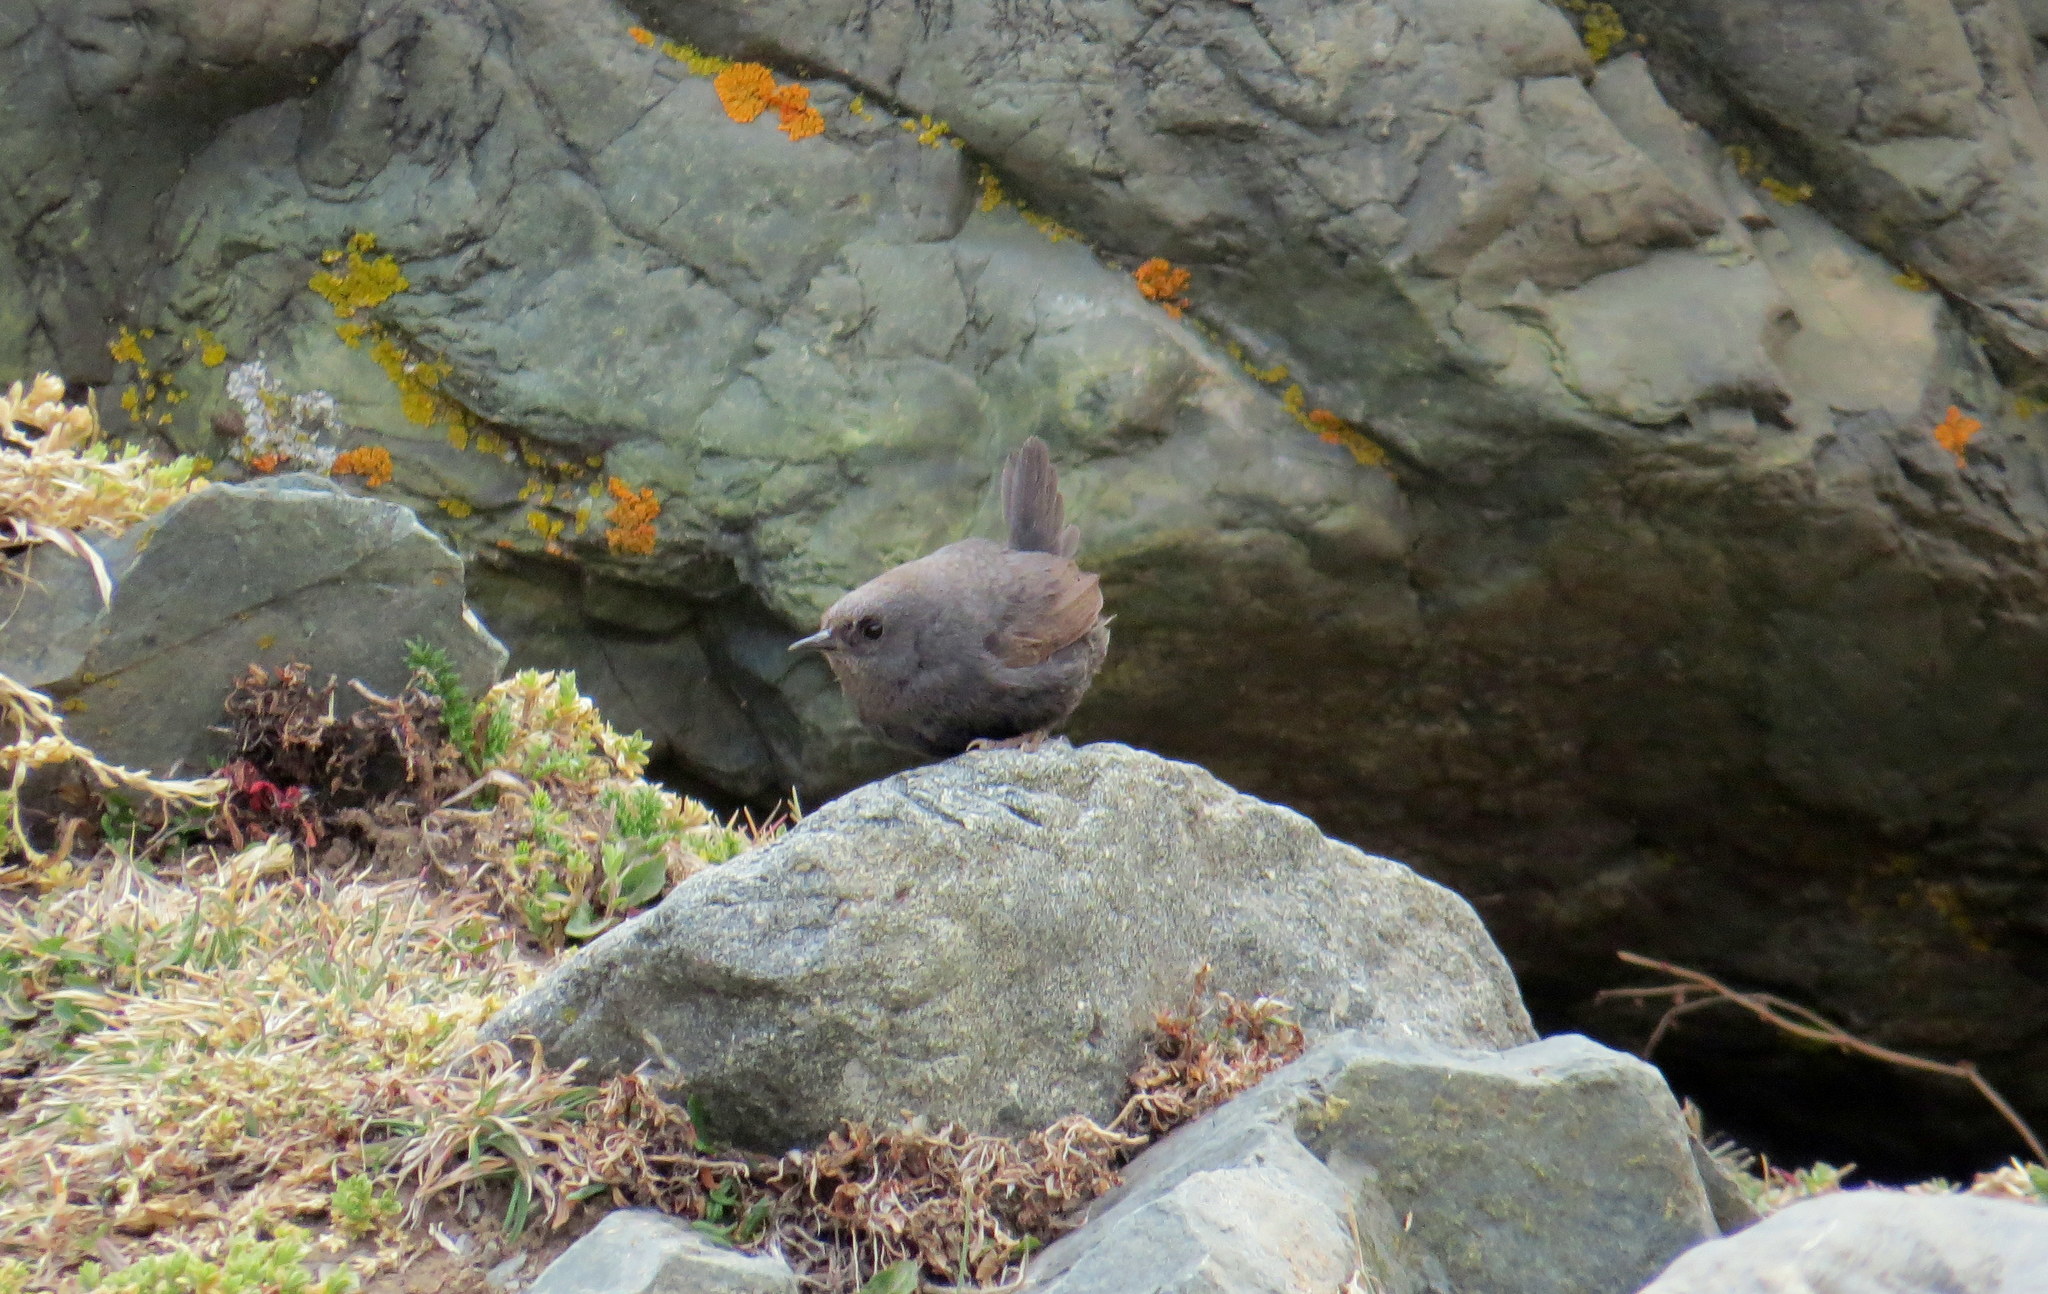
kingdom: Animalia
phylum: Chordata
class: Aves
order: Passeriformes
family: Rhinocryptidae
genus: Scytalopus
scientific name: Scytalopus magellanicus
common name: Magellanic tapaculo
